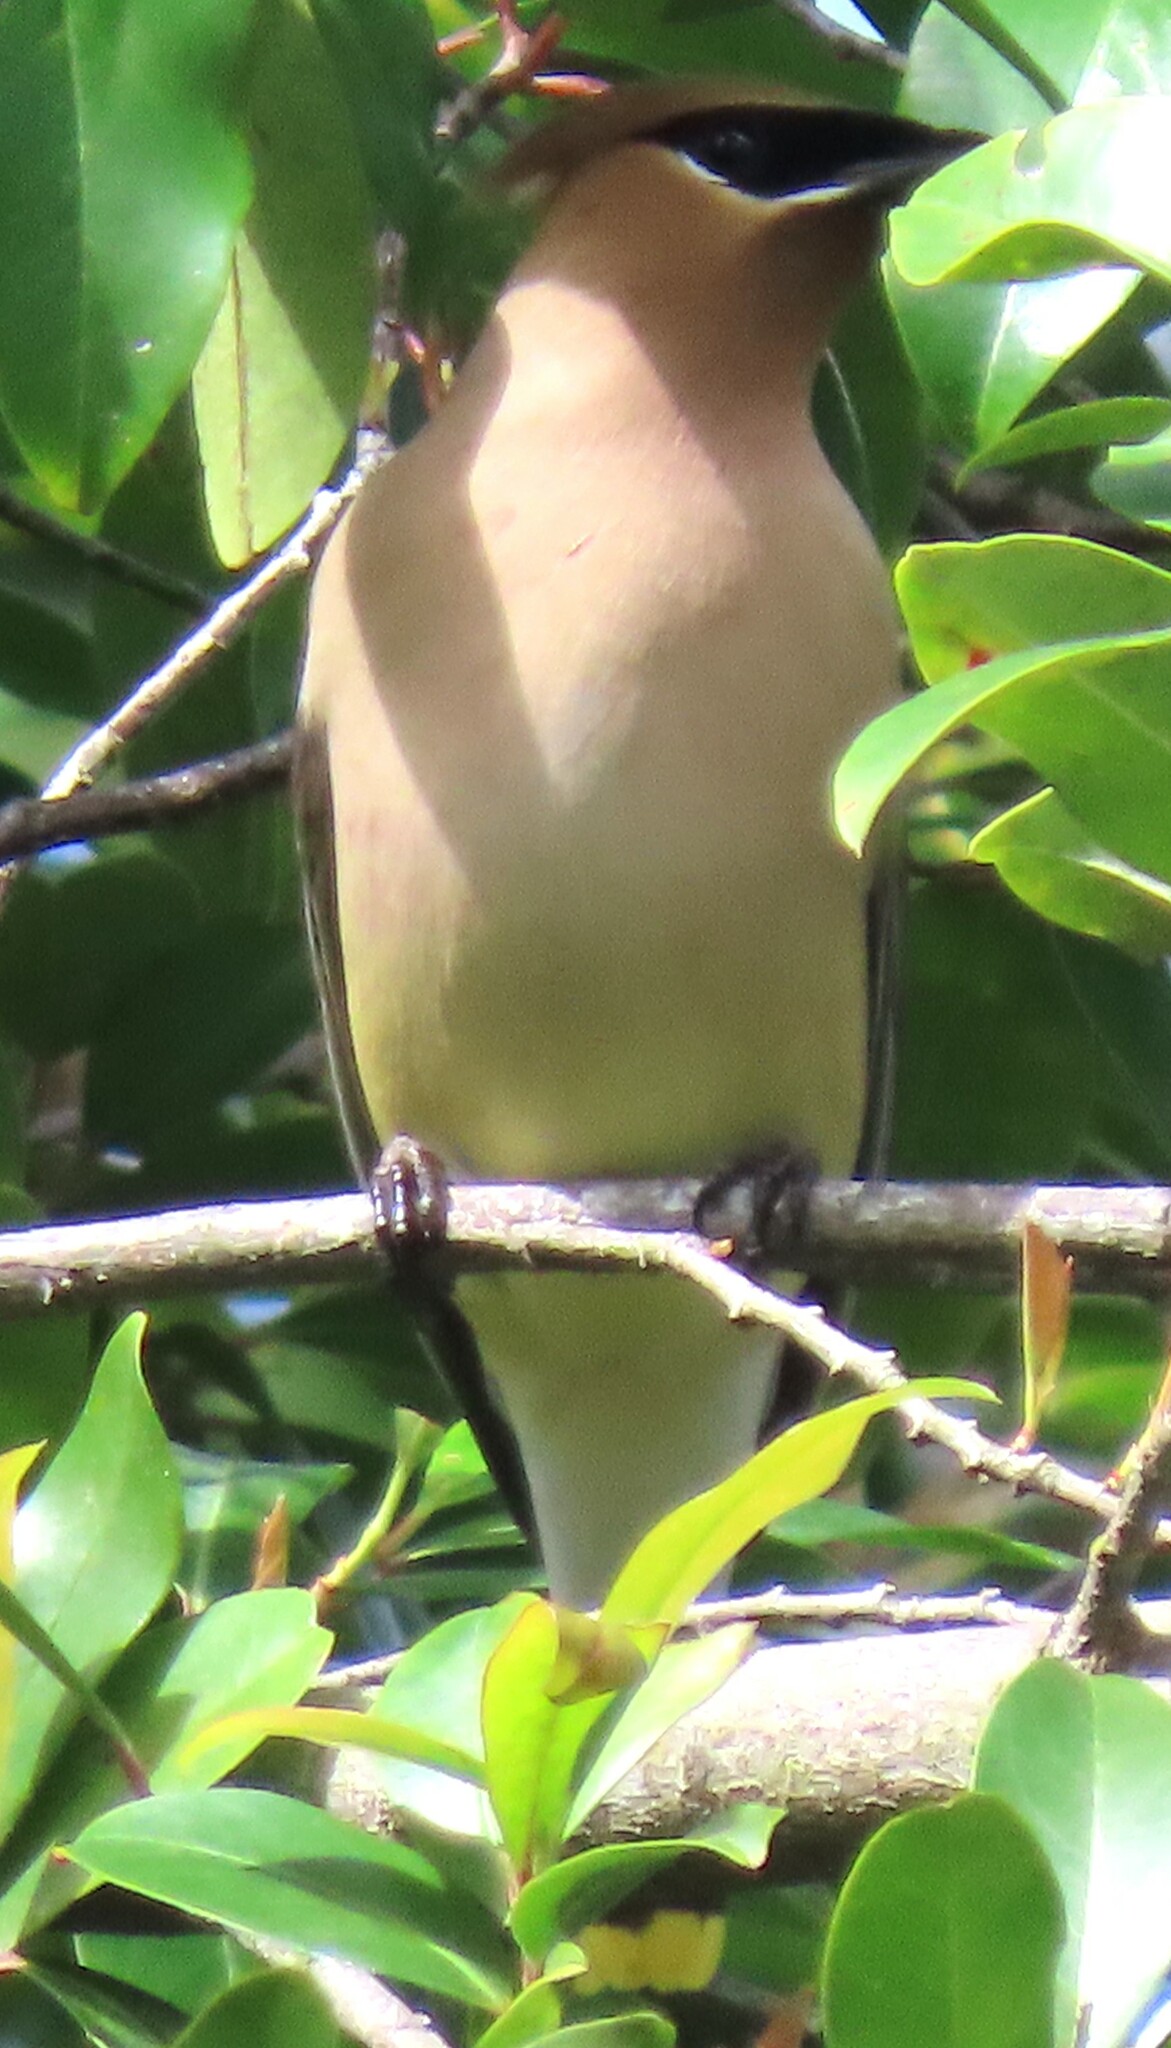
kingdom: Animalia
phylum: Chordata
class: Aves
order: Passeriformes
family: Bombycillidae
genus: Bombycilla
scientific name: Bombycilla cedrorum
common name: Cedar waxwing
